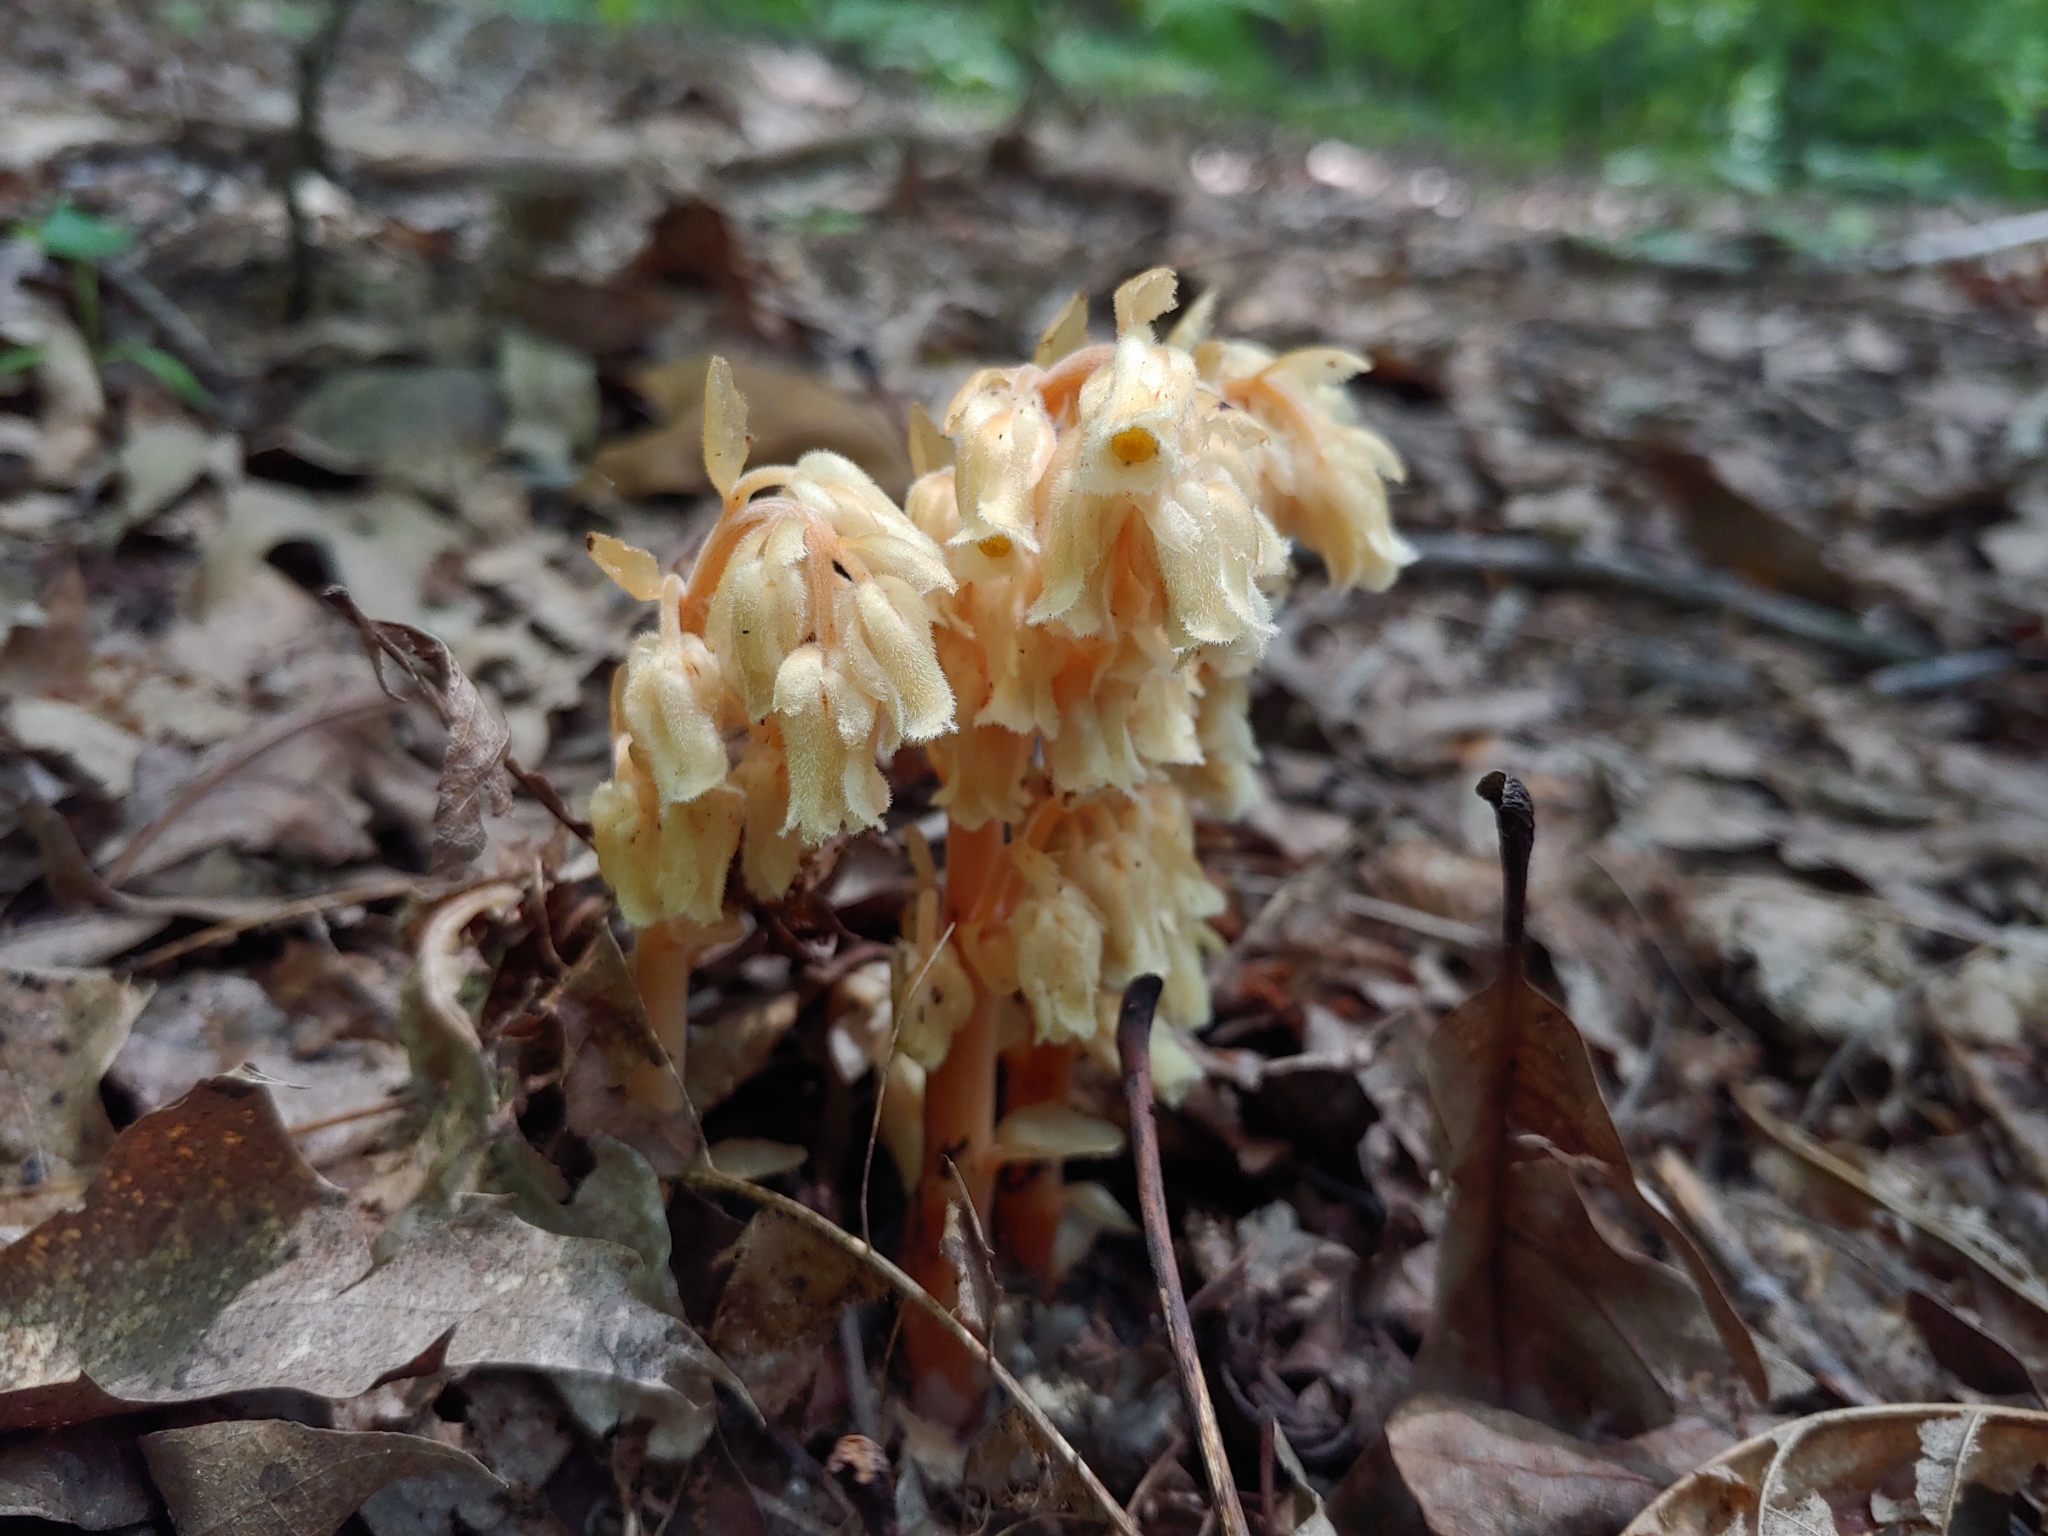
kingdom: Plantae
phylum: Tracheophyta
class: Magnoliopsida
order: Ericales
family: Ericaceae
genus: Hypopitys
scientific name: Hypopitys monotropa
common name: Yellow bird's-nest
